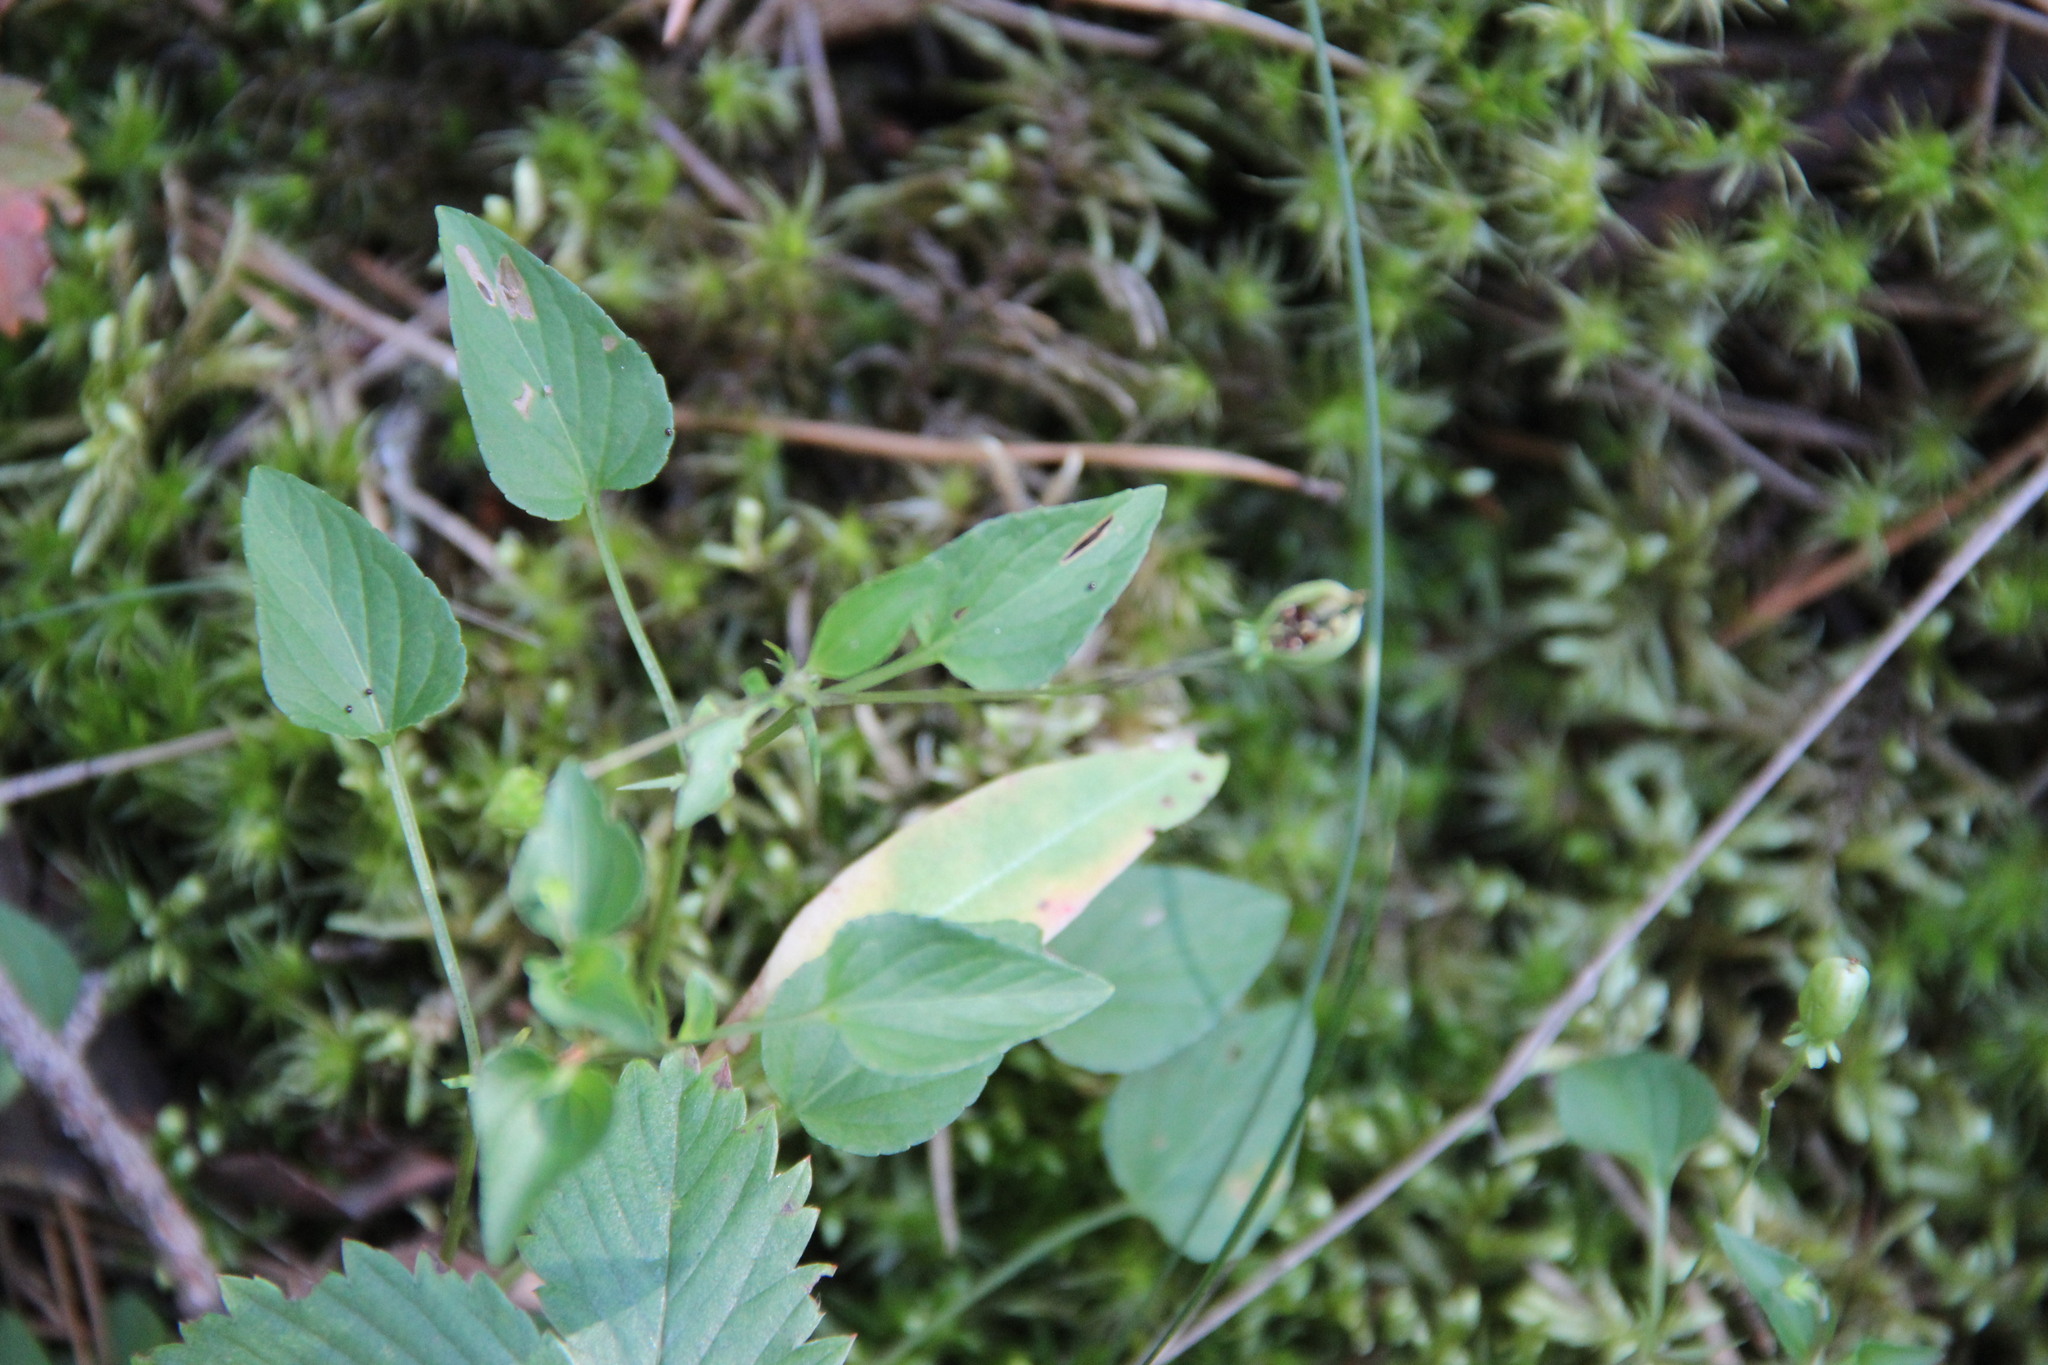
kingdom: Plantae
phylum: Tracheophyta
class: Magnoliopsida
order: Malpighiales
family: Violaceae
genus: Viola
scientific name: Viola canina
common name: Heath dog-violet
